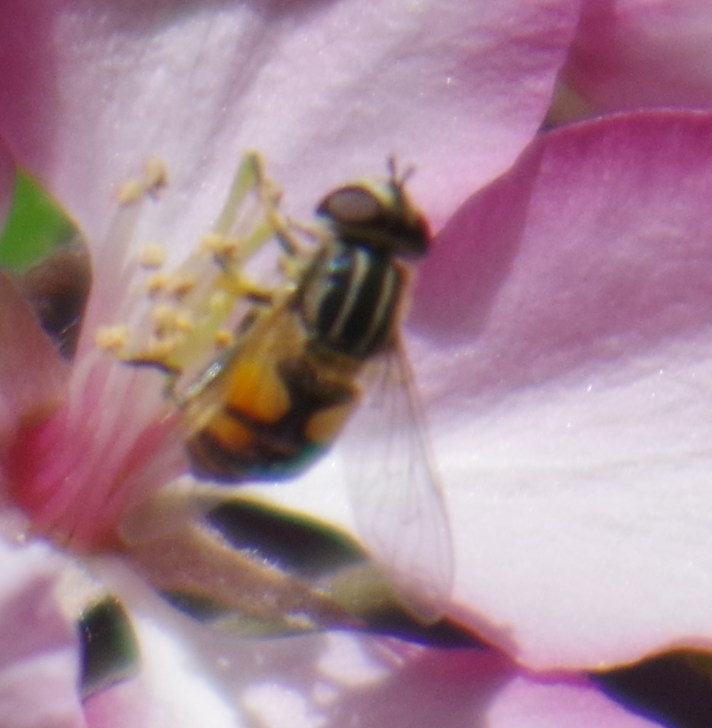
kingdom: Animalia
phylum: Arthropoda
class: Insecta
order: Diptera
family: Syrphidae
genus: Helophilus
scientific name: Helophilus latifrons
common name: Broad-headed marsh fly
